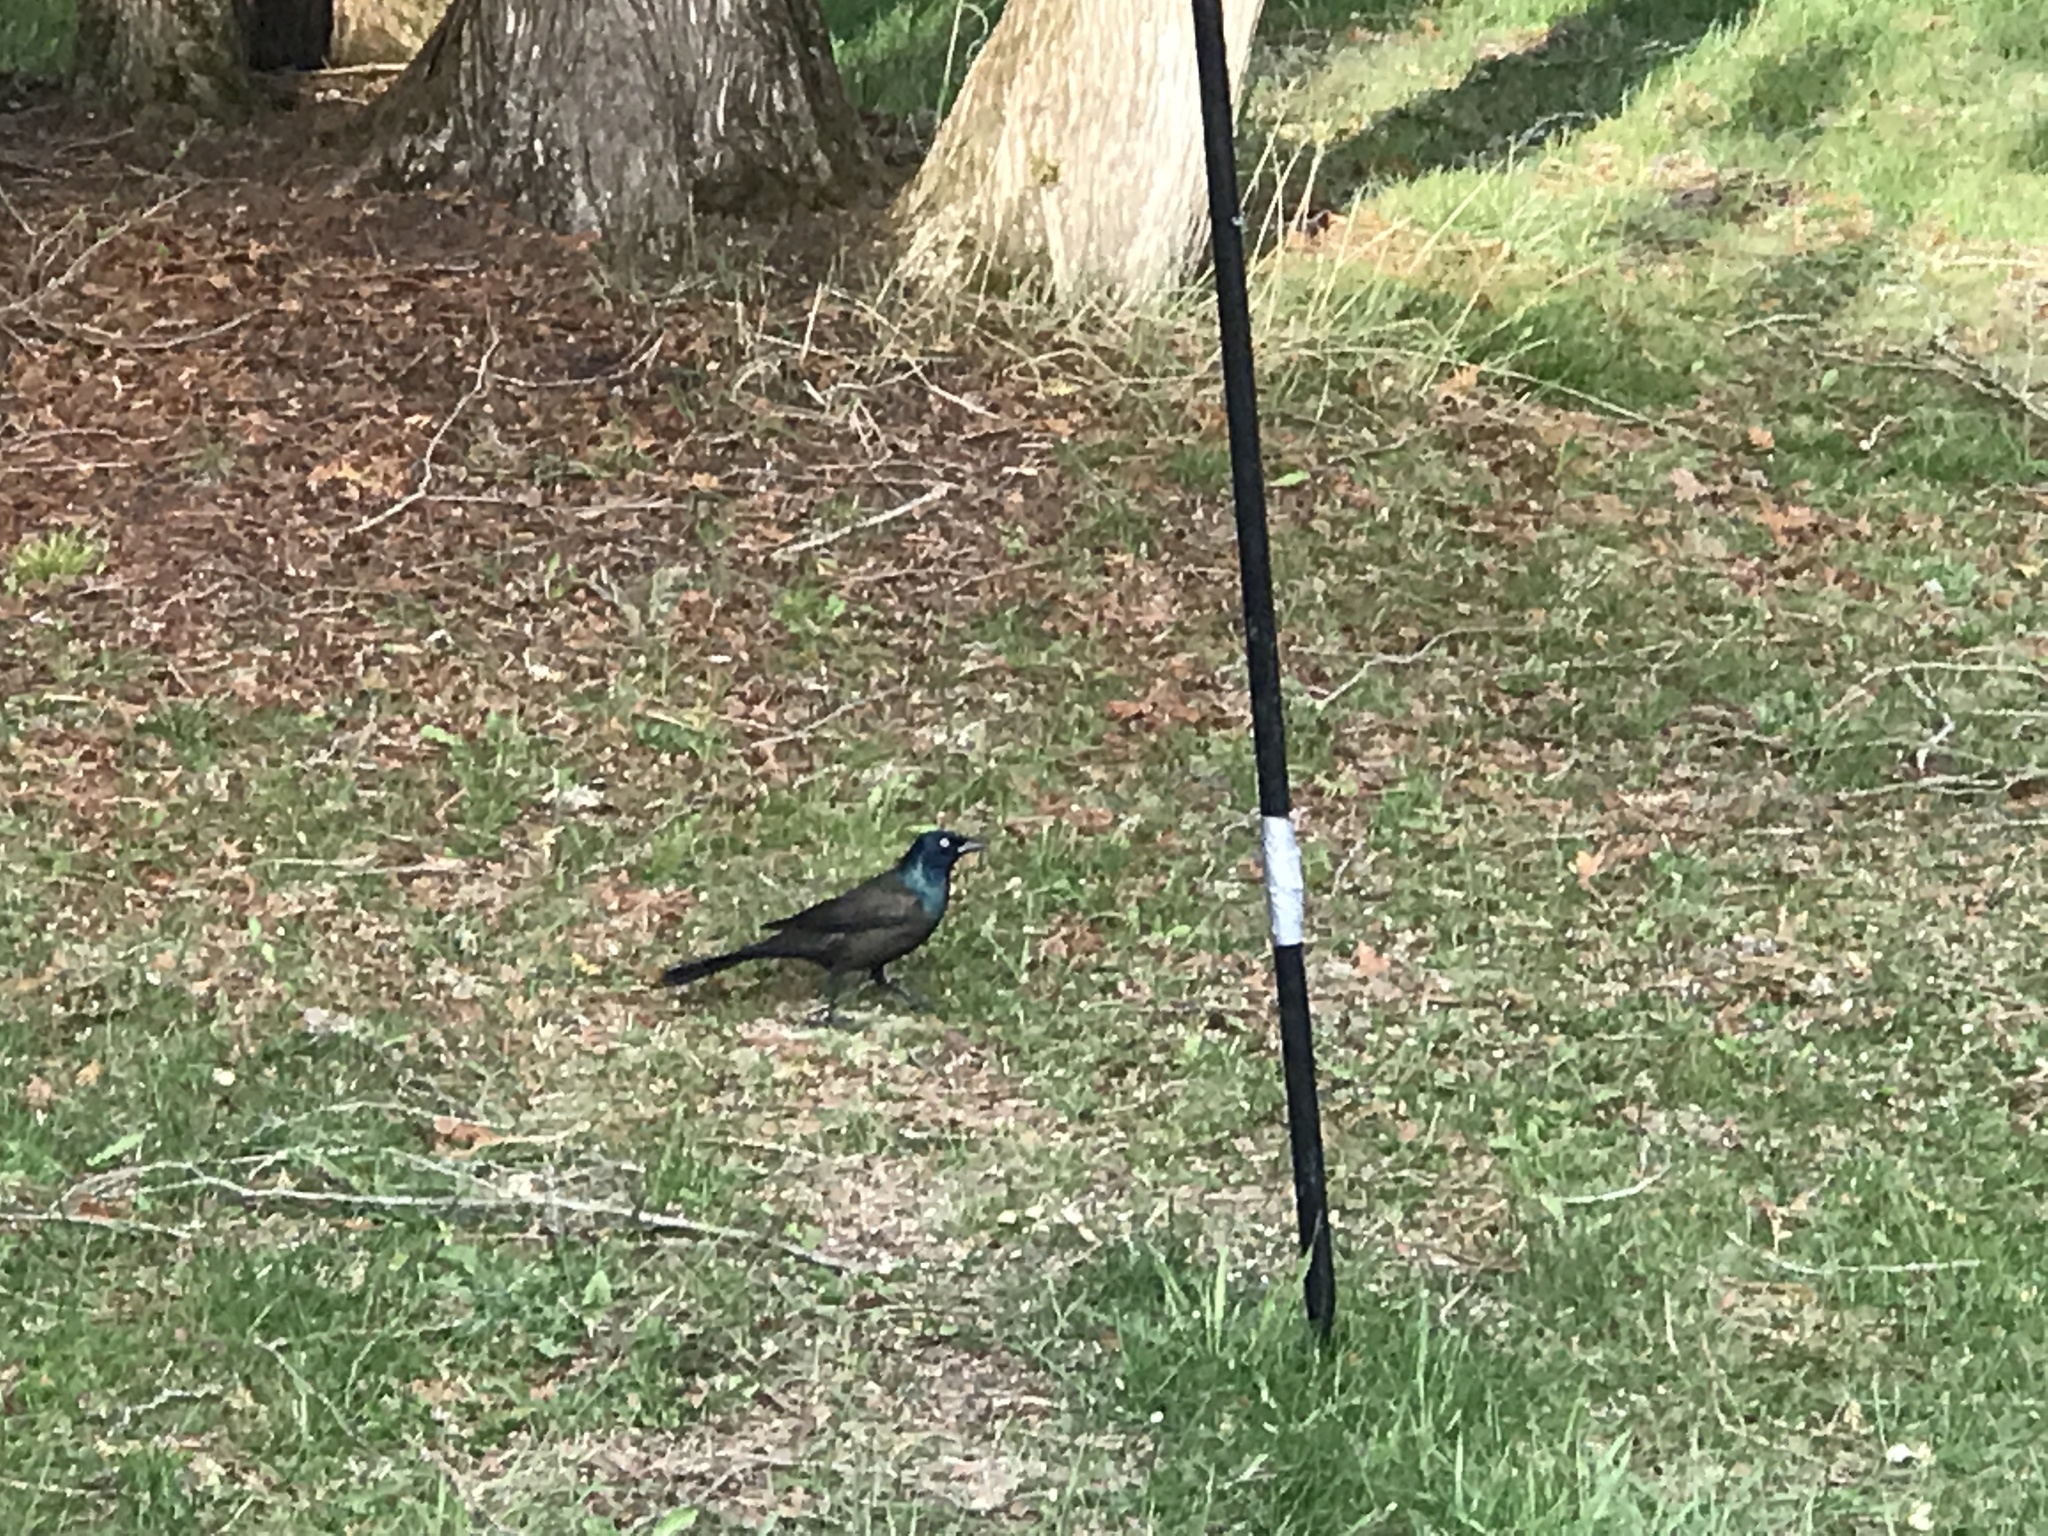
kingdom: Animalia
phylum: Chordata
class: Aves
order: Passeriformes
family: Icteridae
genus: Quiscalus
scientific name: Quiscalus quiscula
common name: Common grackle
